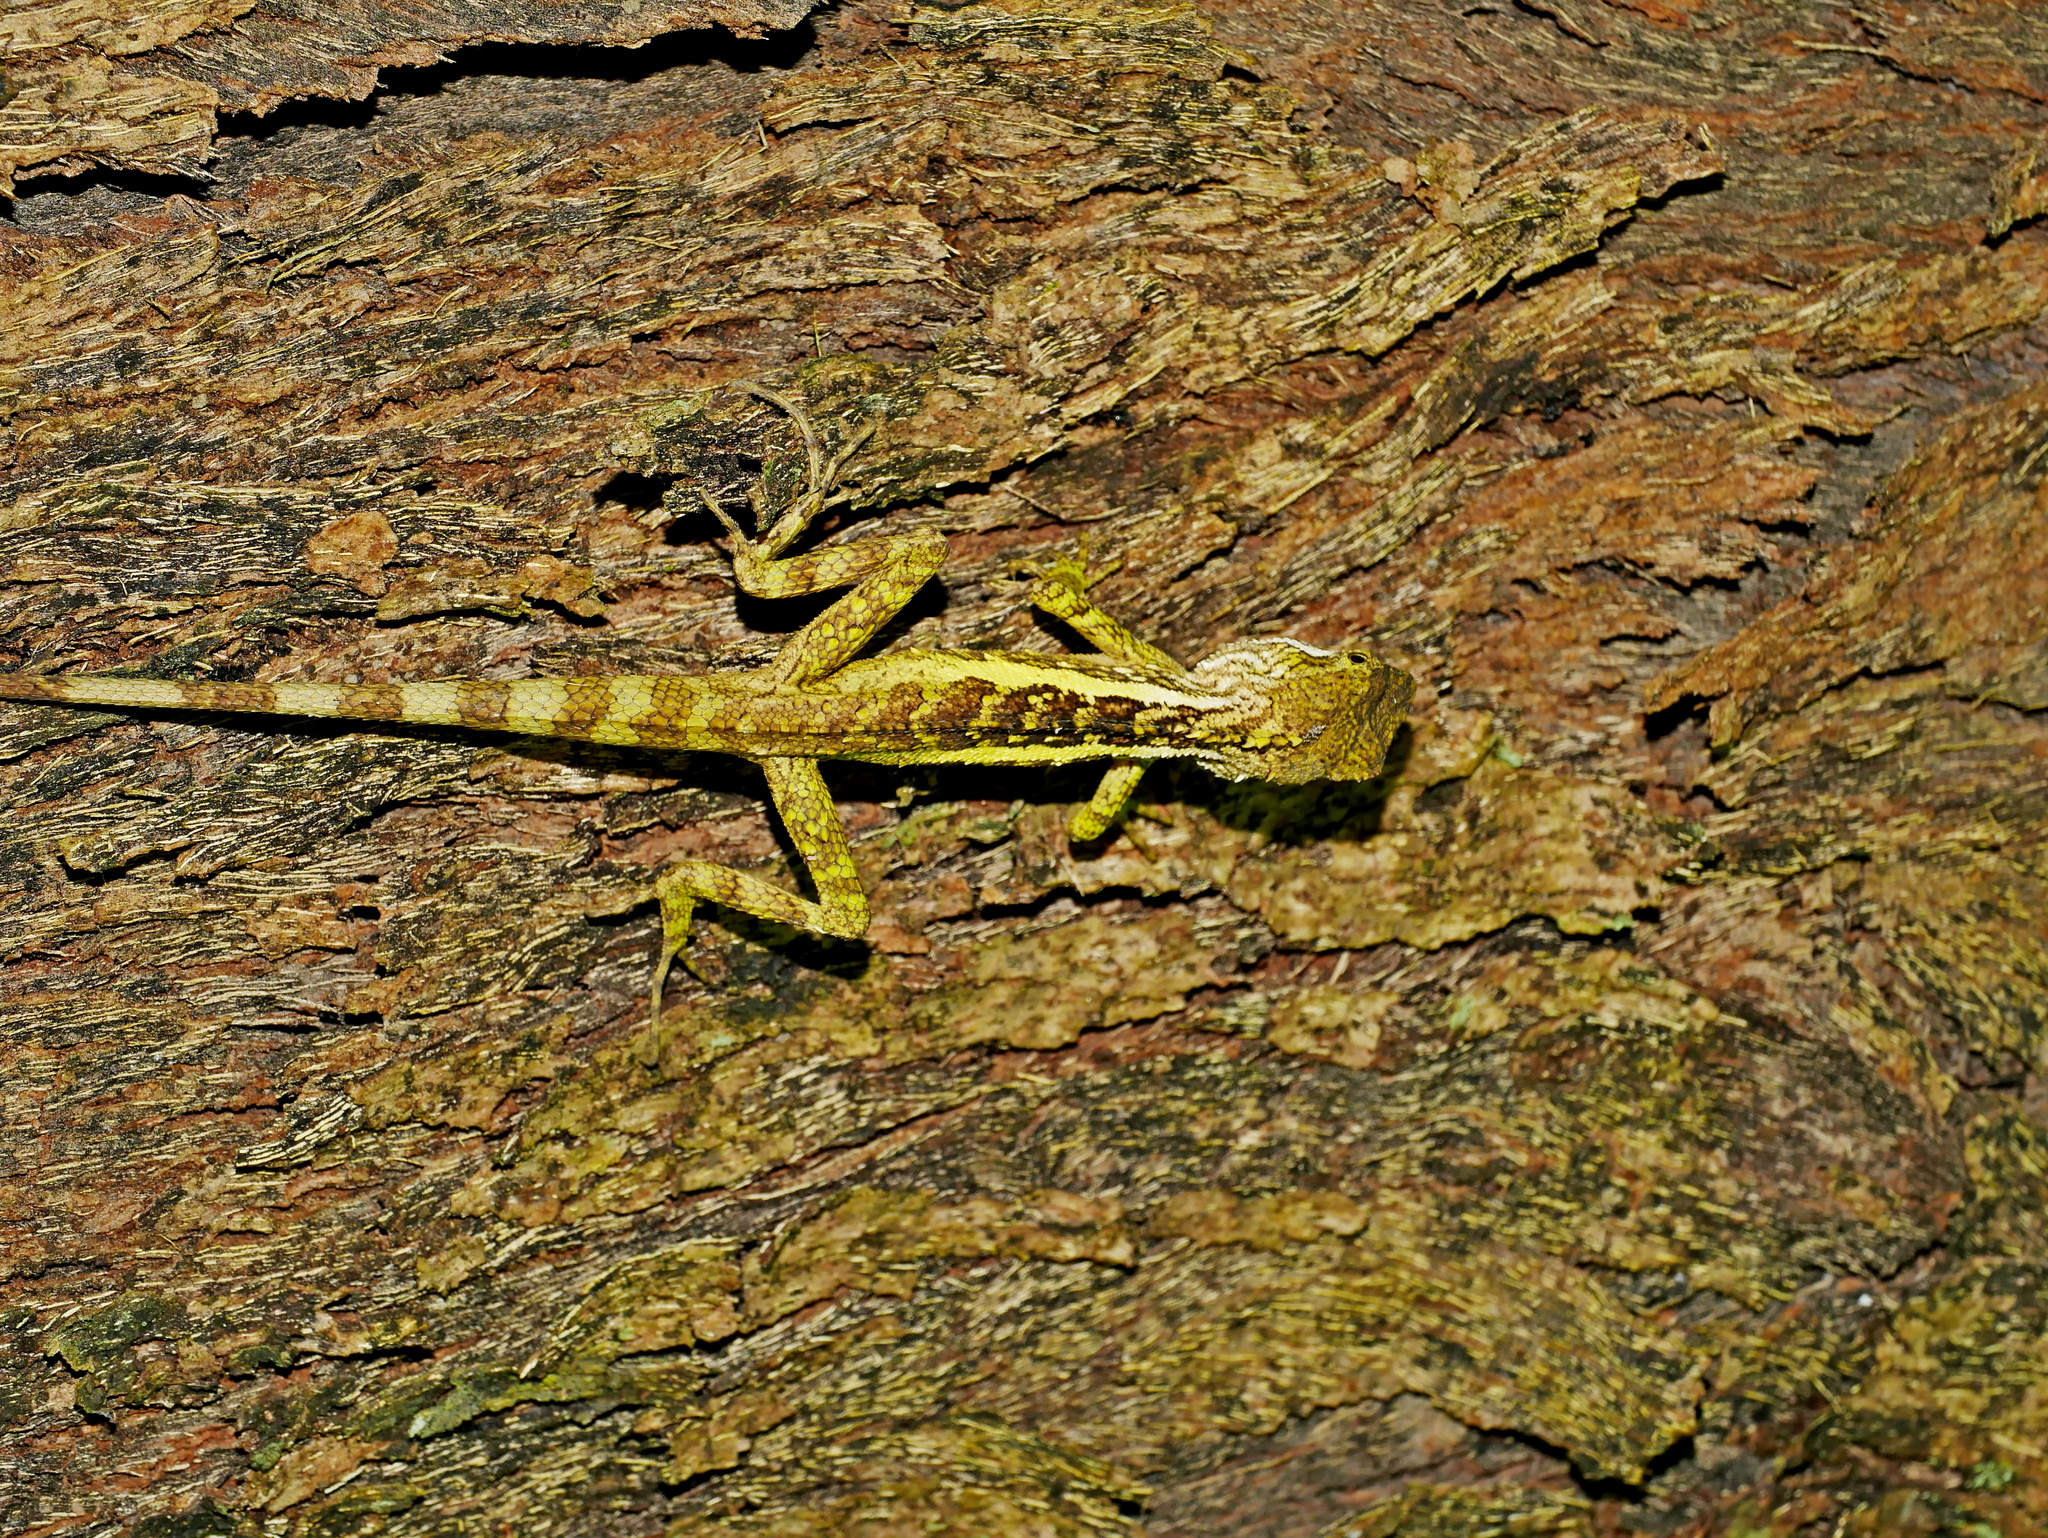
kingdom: Animalia
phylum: Chordata
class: Squamata
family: Agamidae
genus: Diploderma
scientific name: Diploderma swinhonis
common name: Taiwan japalure
